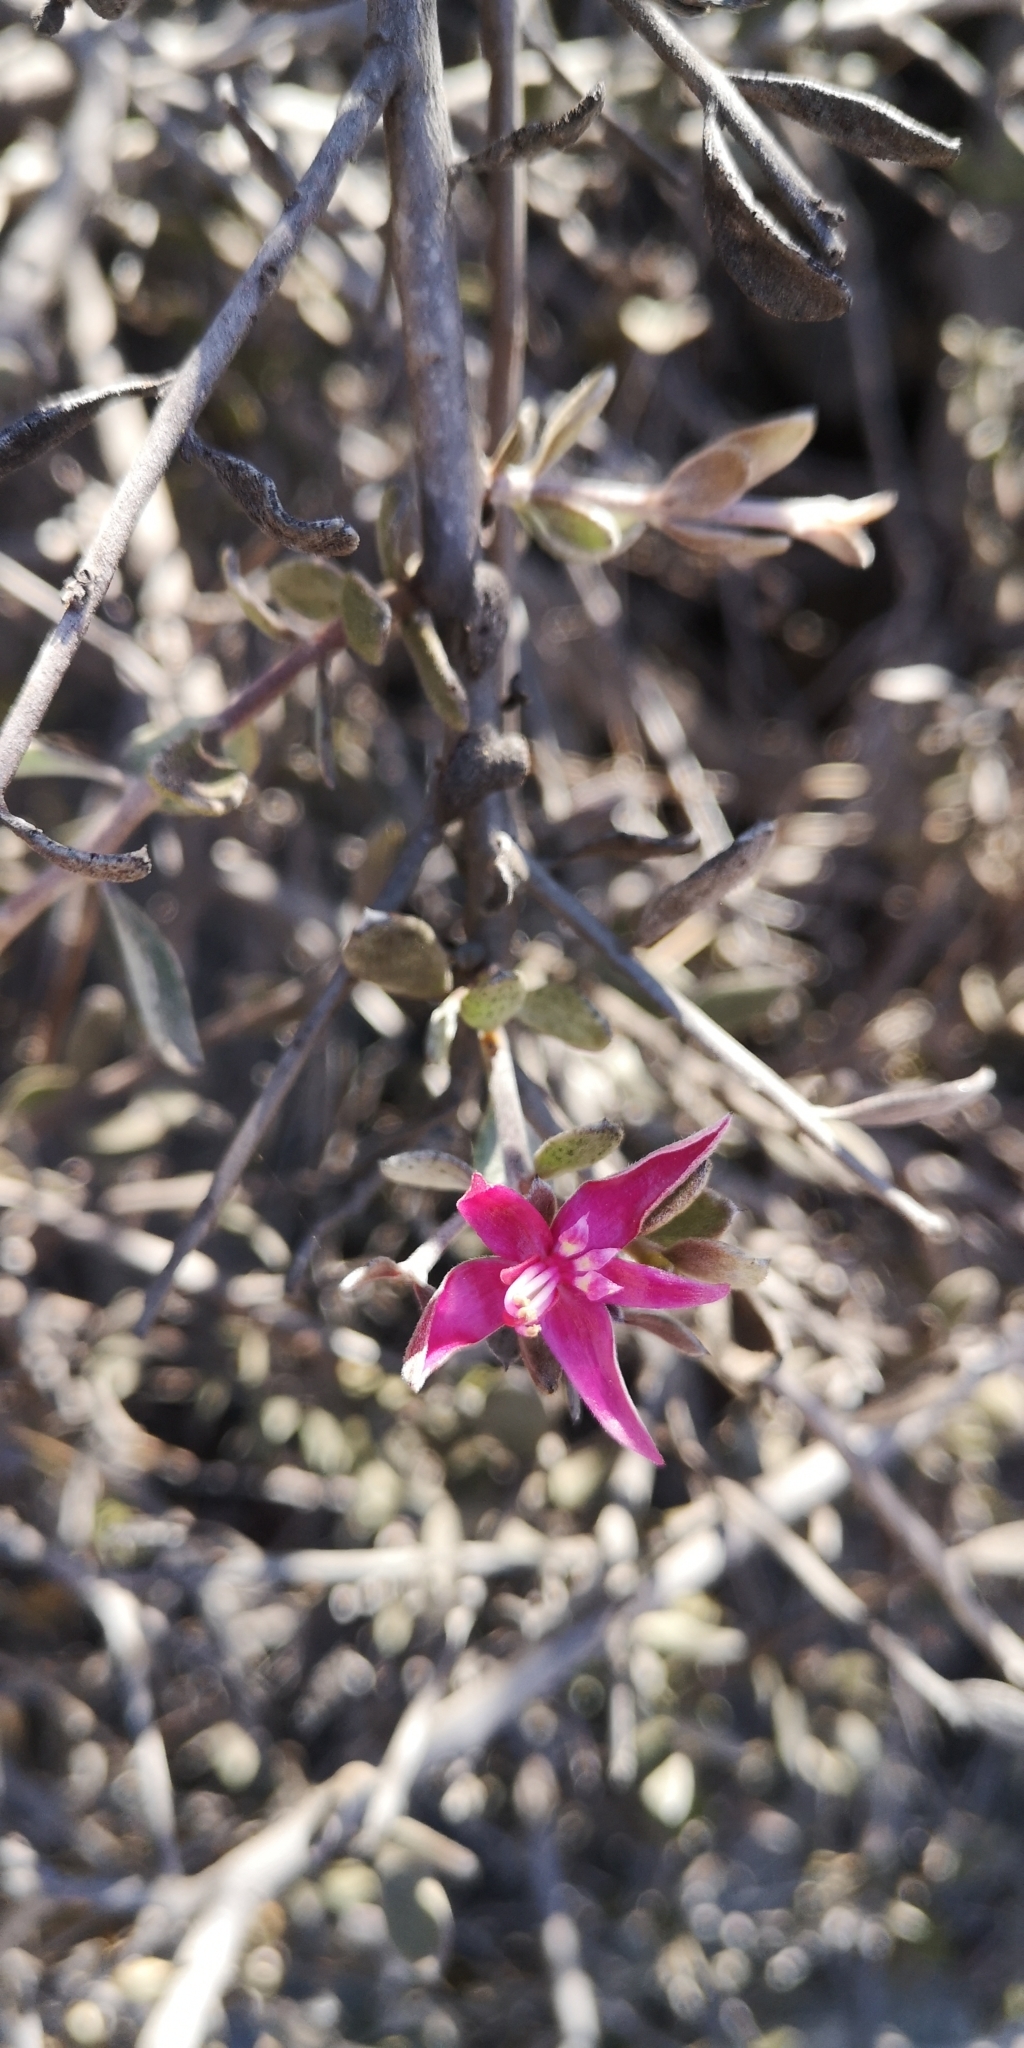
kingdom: Plantae
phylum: Tracheophyta
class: Magnoliopsida
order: Zygophyllales
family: Krameriaceae
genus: Krameria
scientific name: Krameria cistoidea
